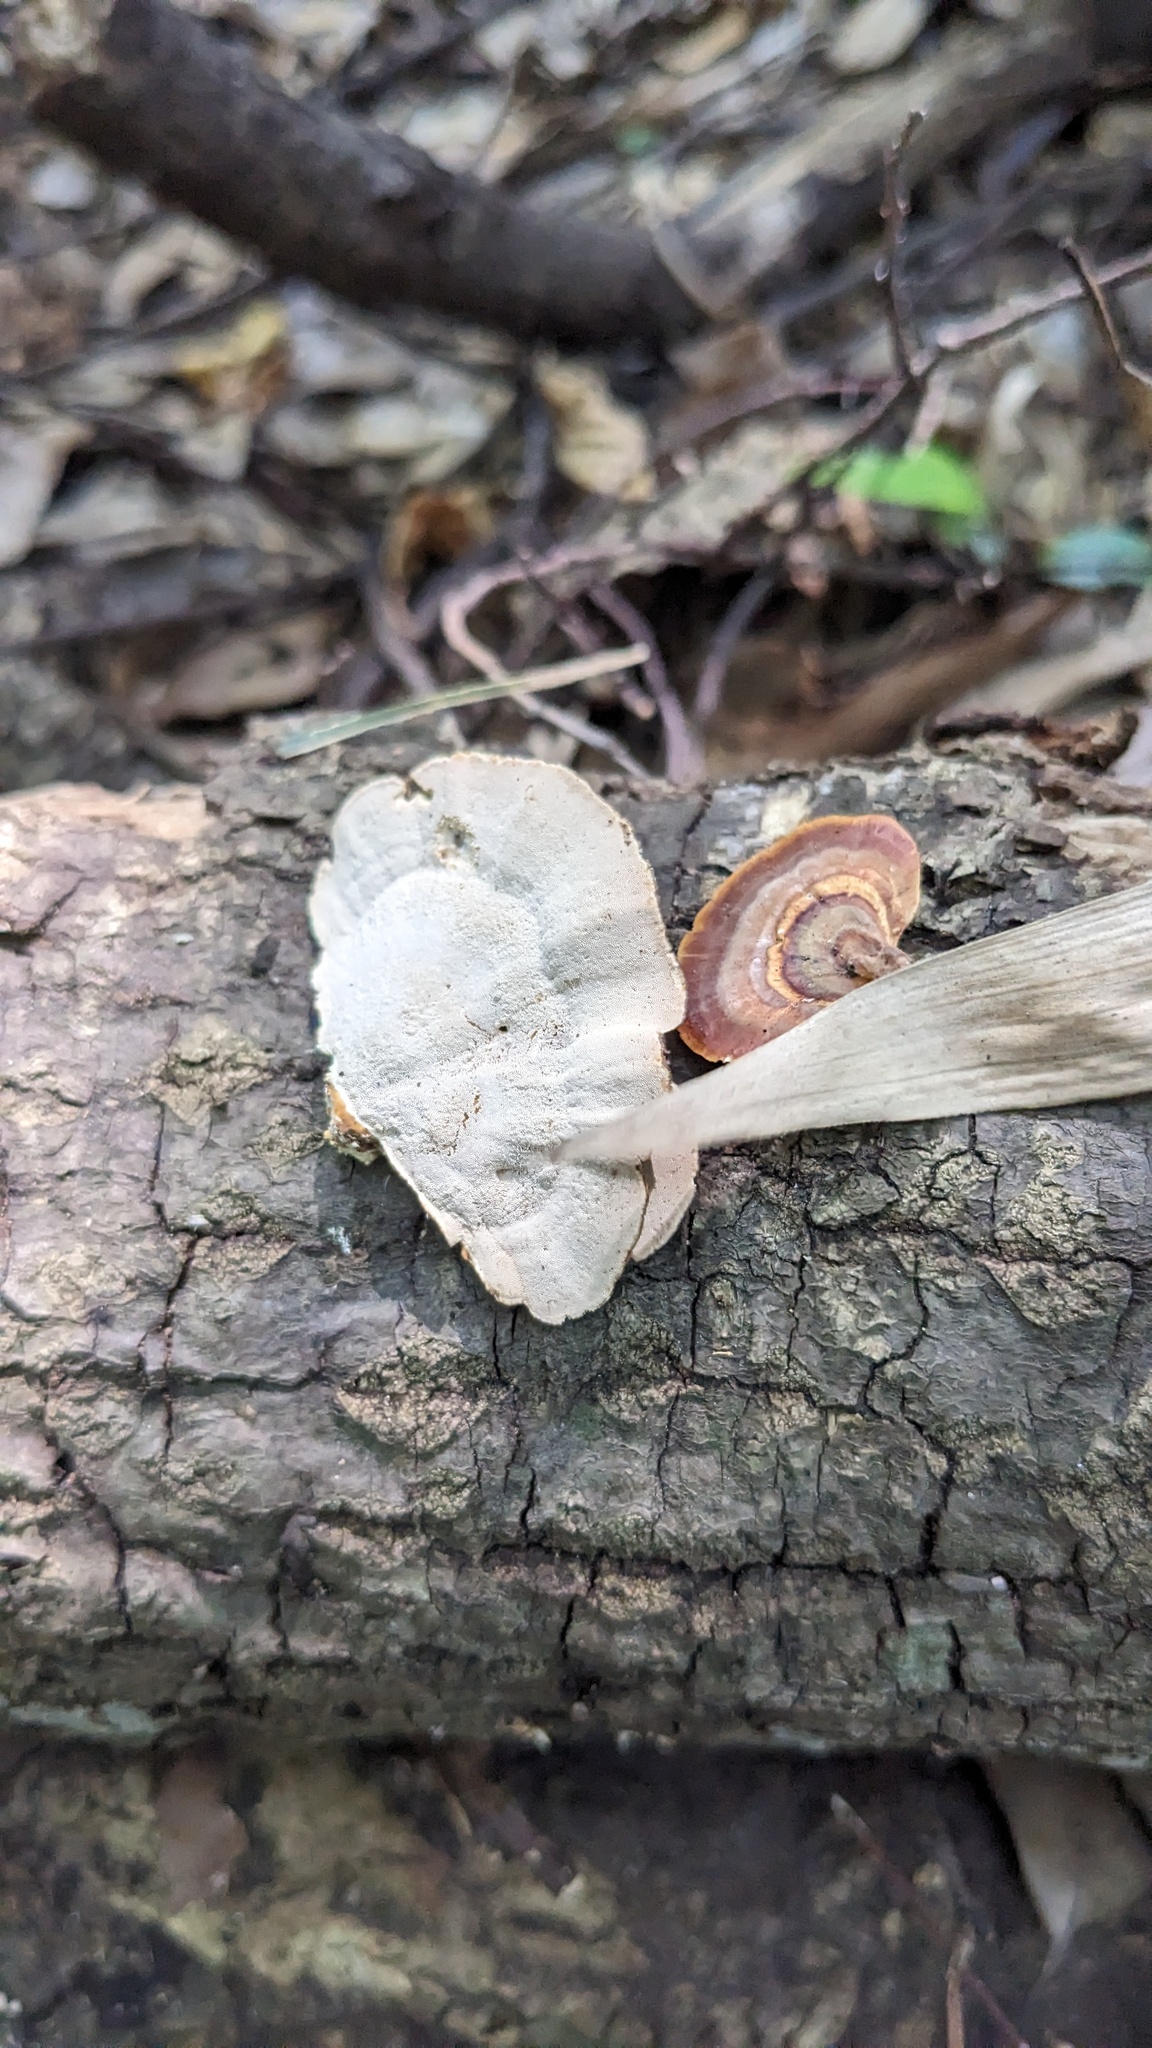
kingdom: Fungi
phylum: Basidiomycota
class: Agaricomycetes
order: Polyporales
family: Polyporaceae
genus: Microporus
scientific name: Microporus affinis
